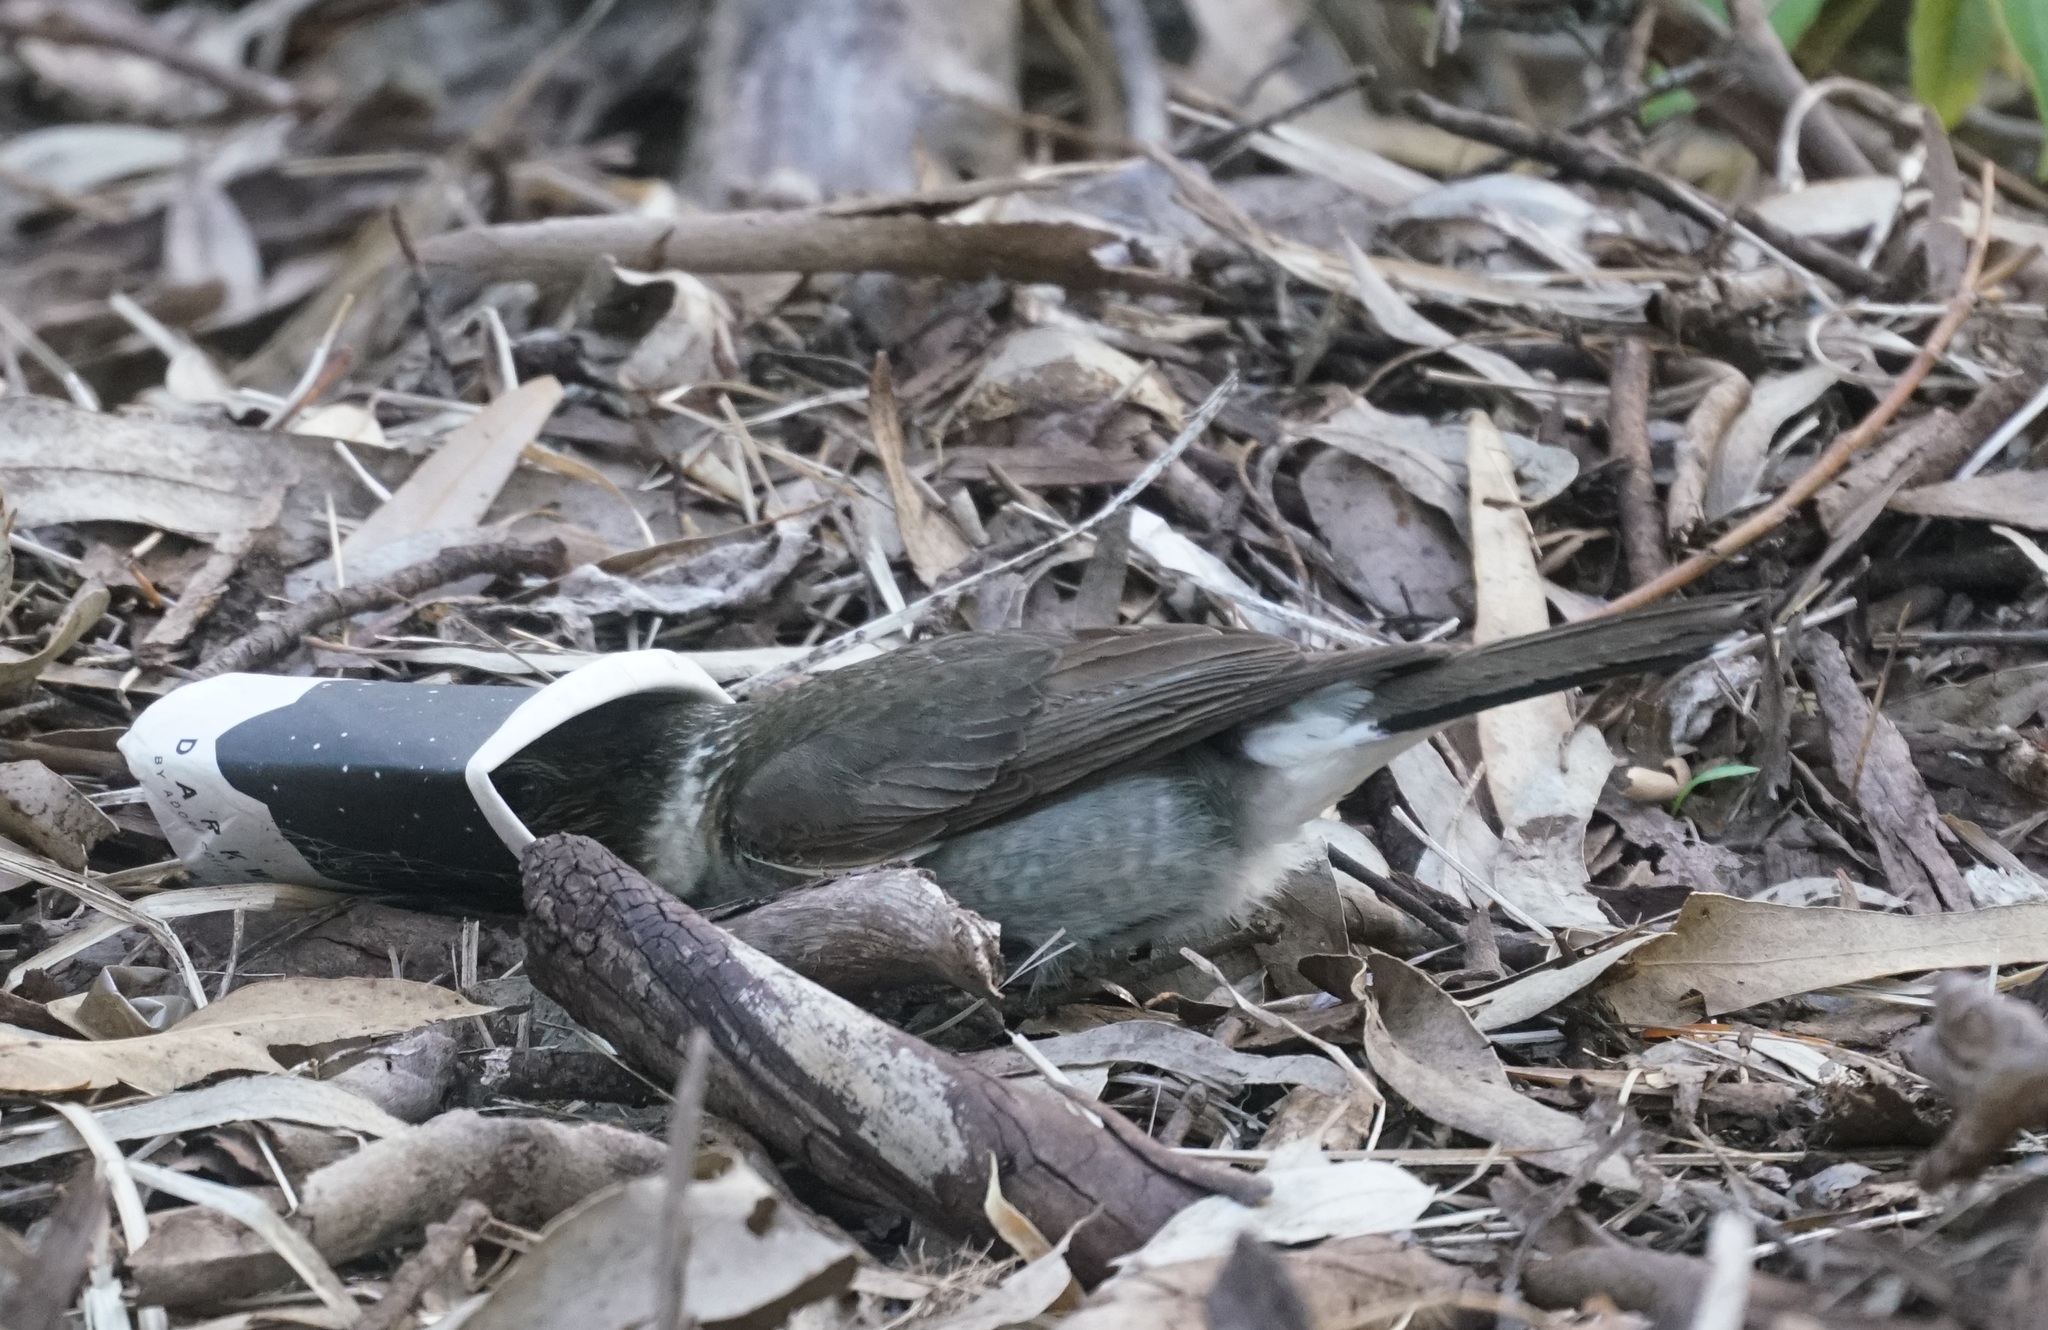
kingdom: Animalia
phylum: Chordata
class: Aves
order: Passeriformes
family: Cracticidae
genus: Cracticus
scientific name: Cracticus torquatus
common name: Grey butcherbird
